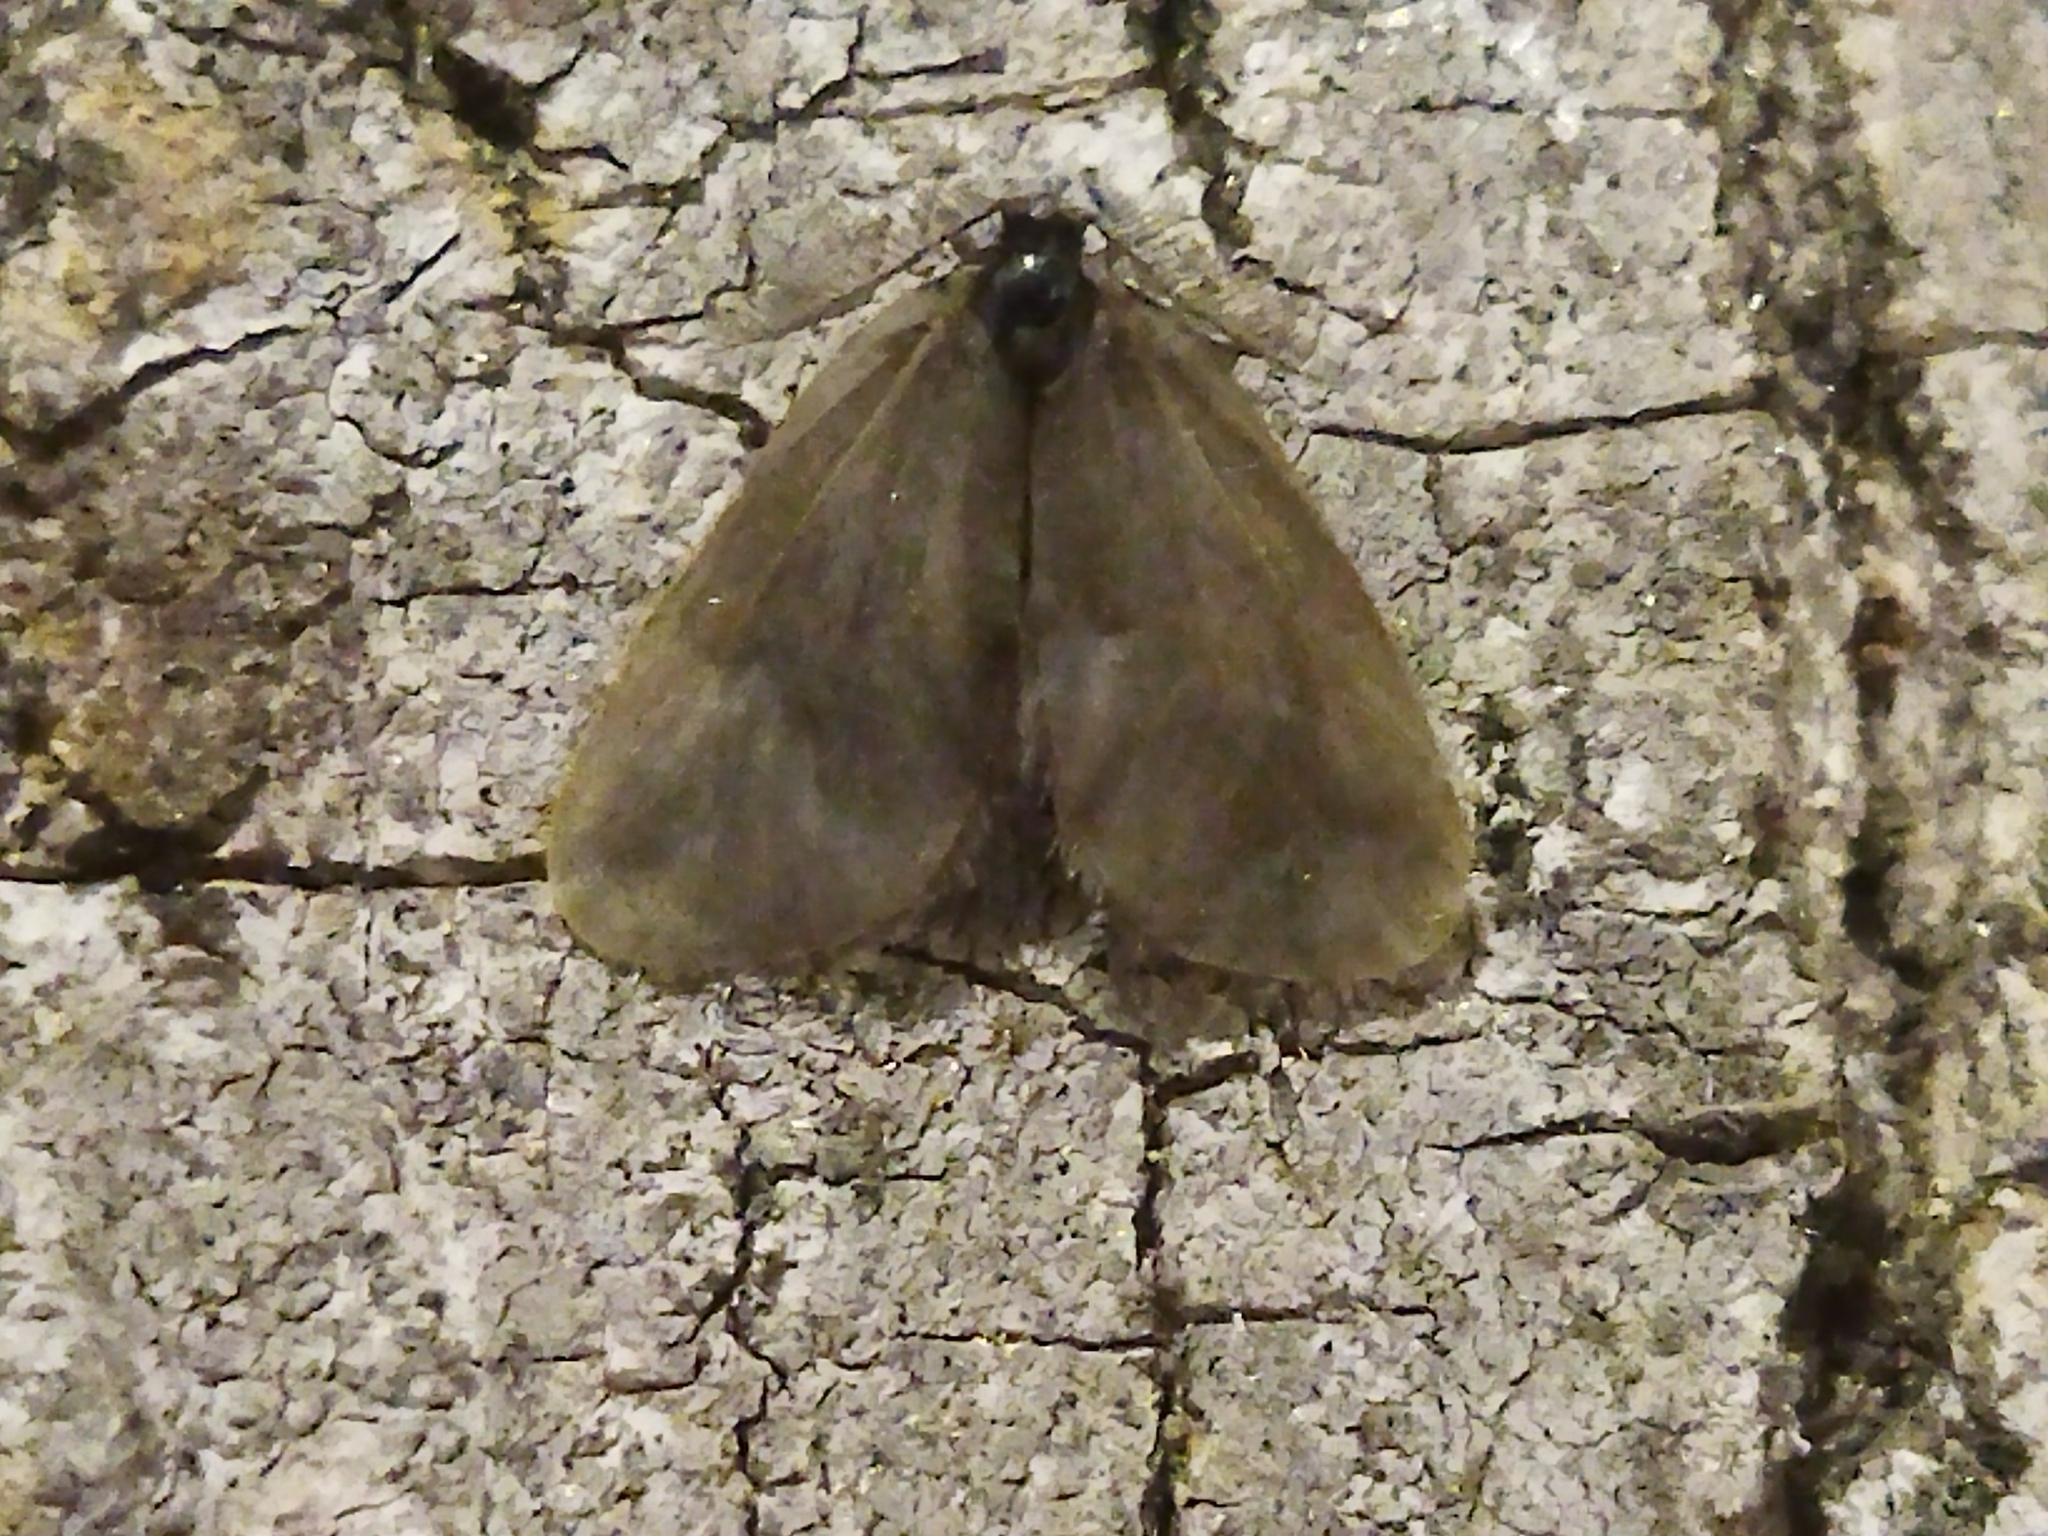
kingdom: Animalia
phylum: Arthropoda
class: Insecta
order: Lepidoptera
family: Psychidae
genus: Rebelia
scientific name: Rebelia perlucidella
